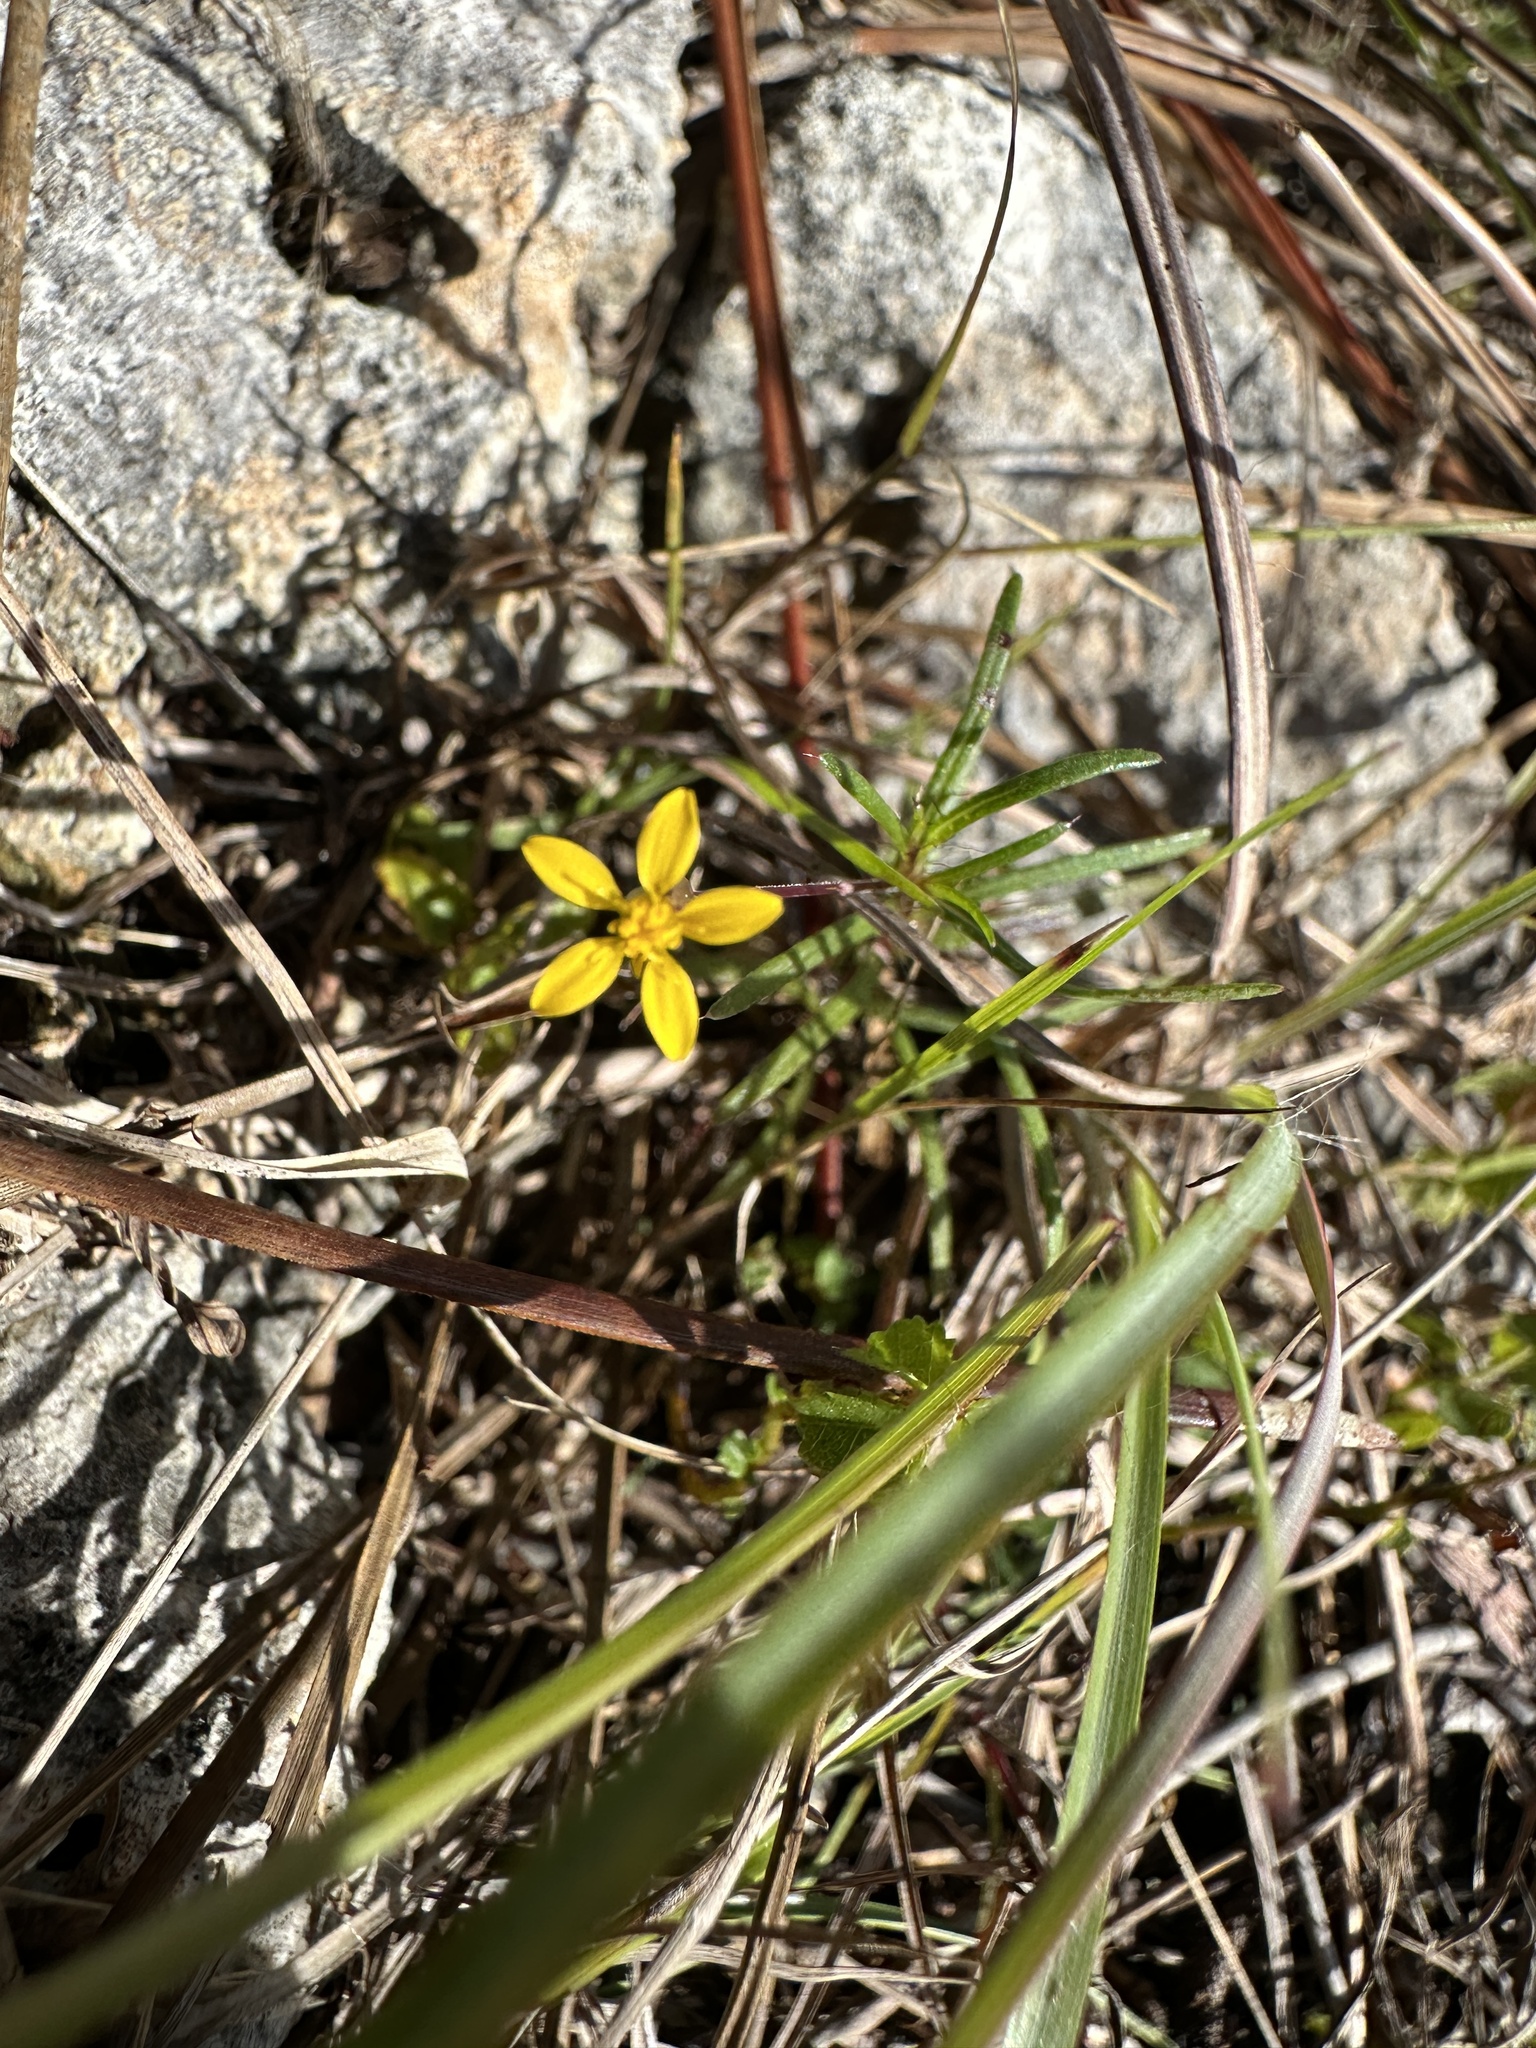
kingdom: Plantae
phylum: Tracheophyta
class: Magnoliopsida
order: Asterales
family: Asteraceae
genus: Pectis
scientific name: Pectis glaucescens
